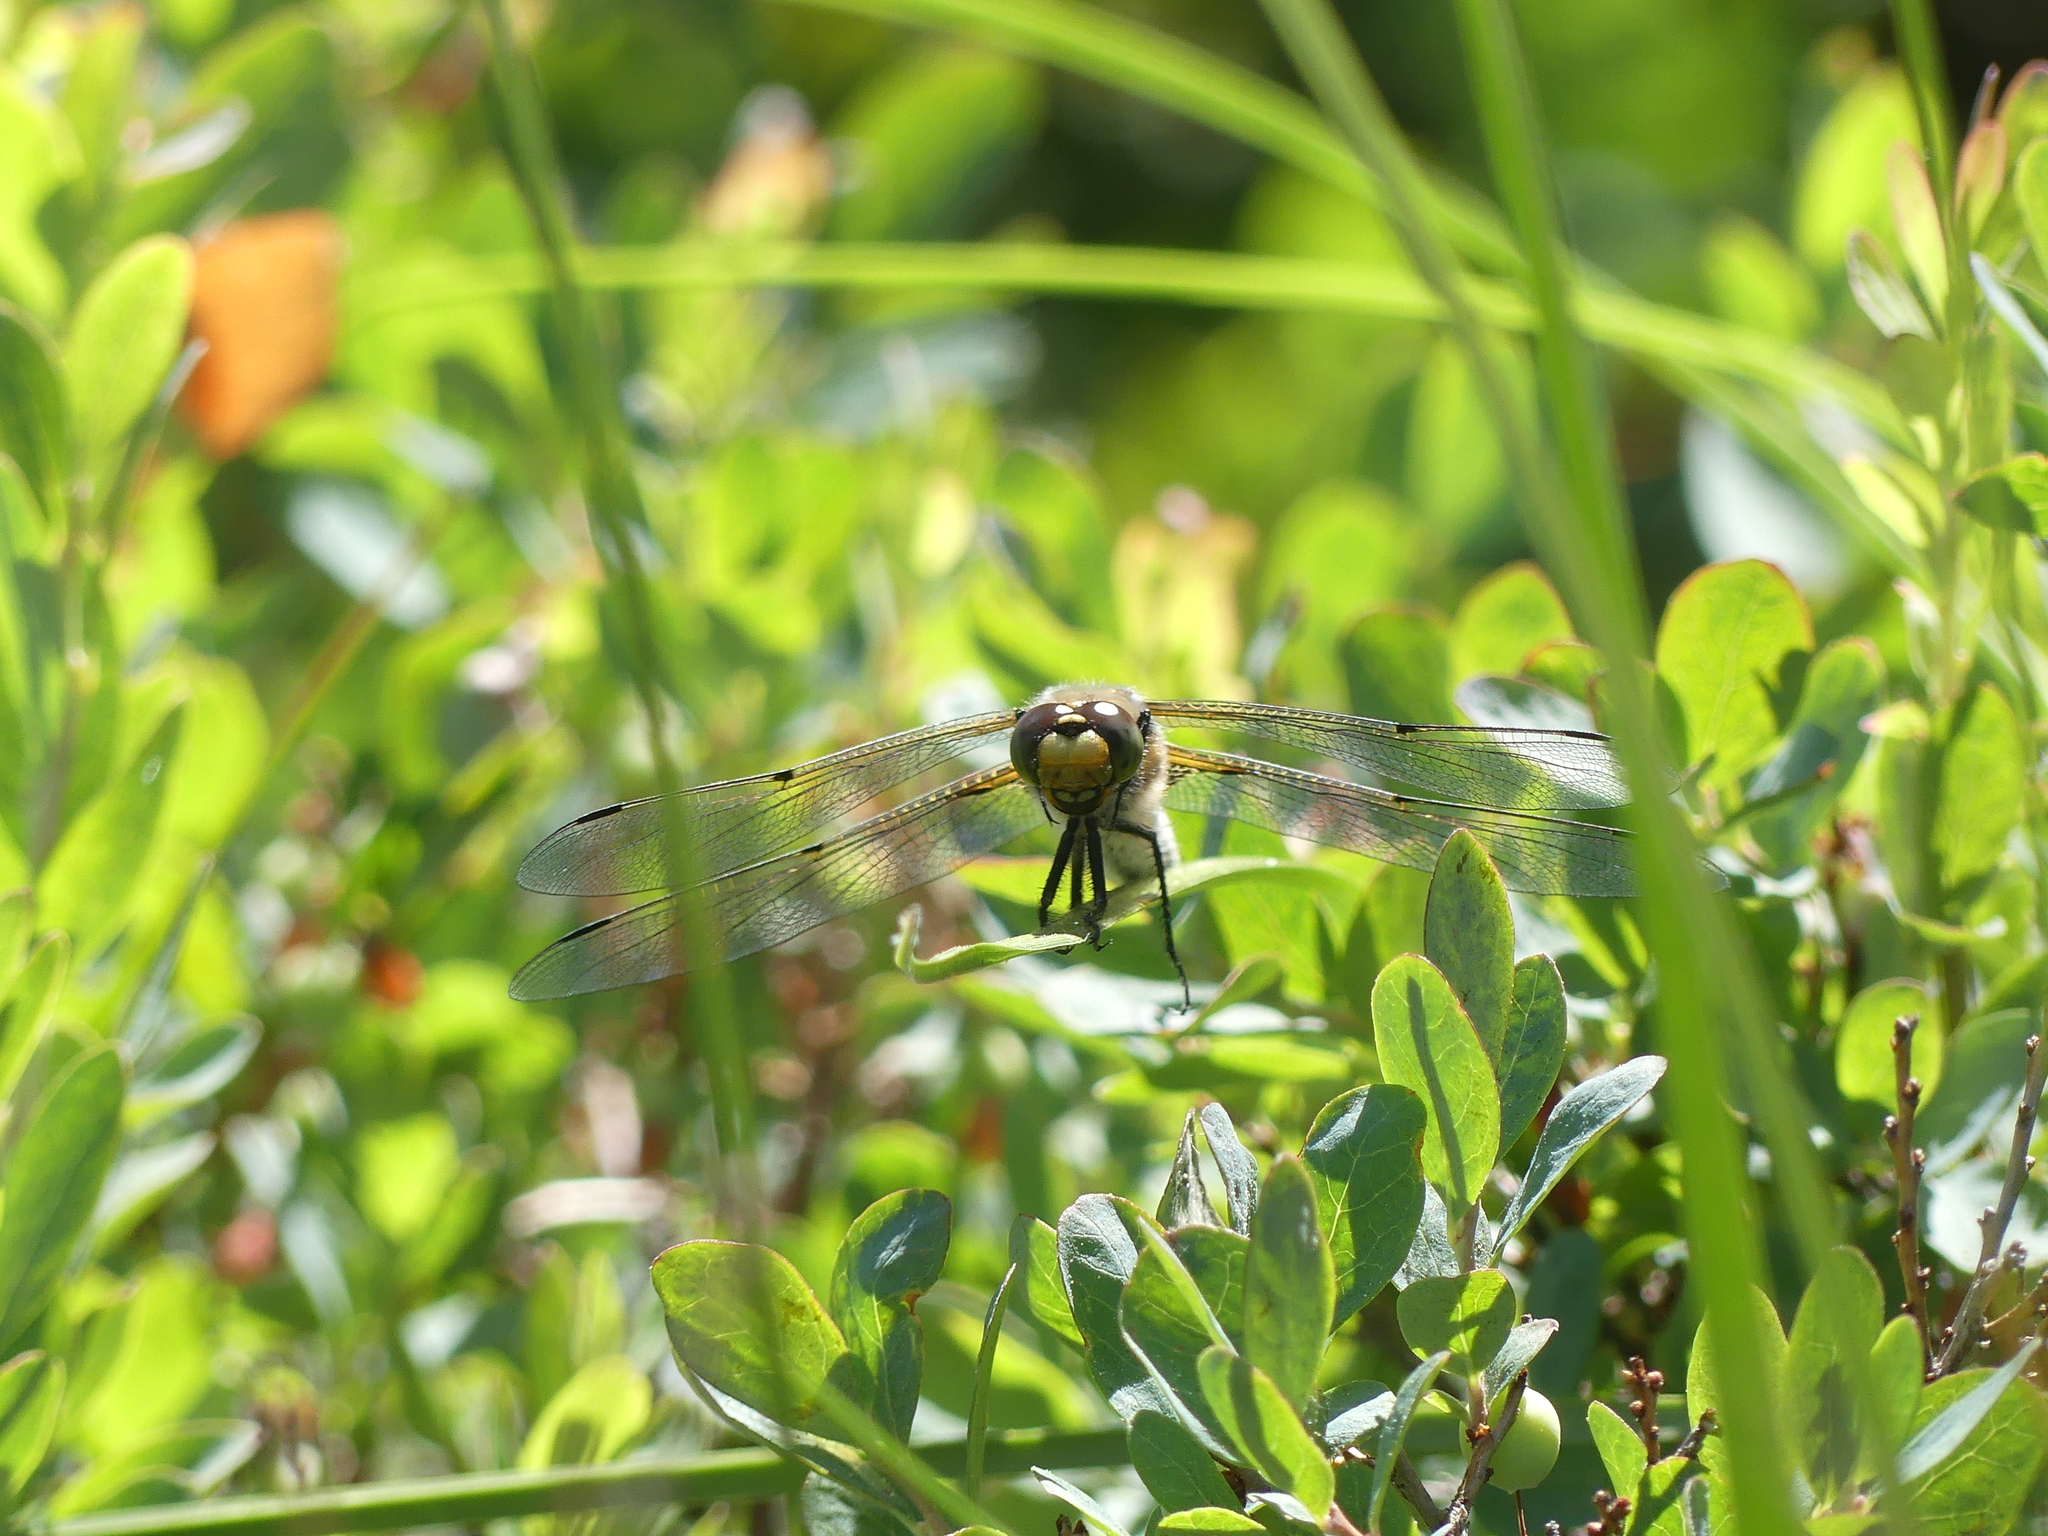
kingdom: Animalia
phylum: Arthropoda
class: Insecta
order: Odonata
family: Libellulidae
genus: Libellula
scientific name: Libellula quadrimaculata
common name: Four-spotted chaser
